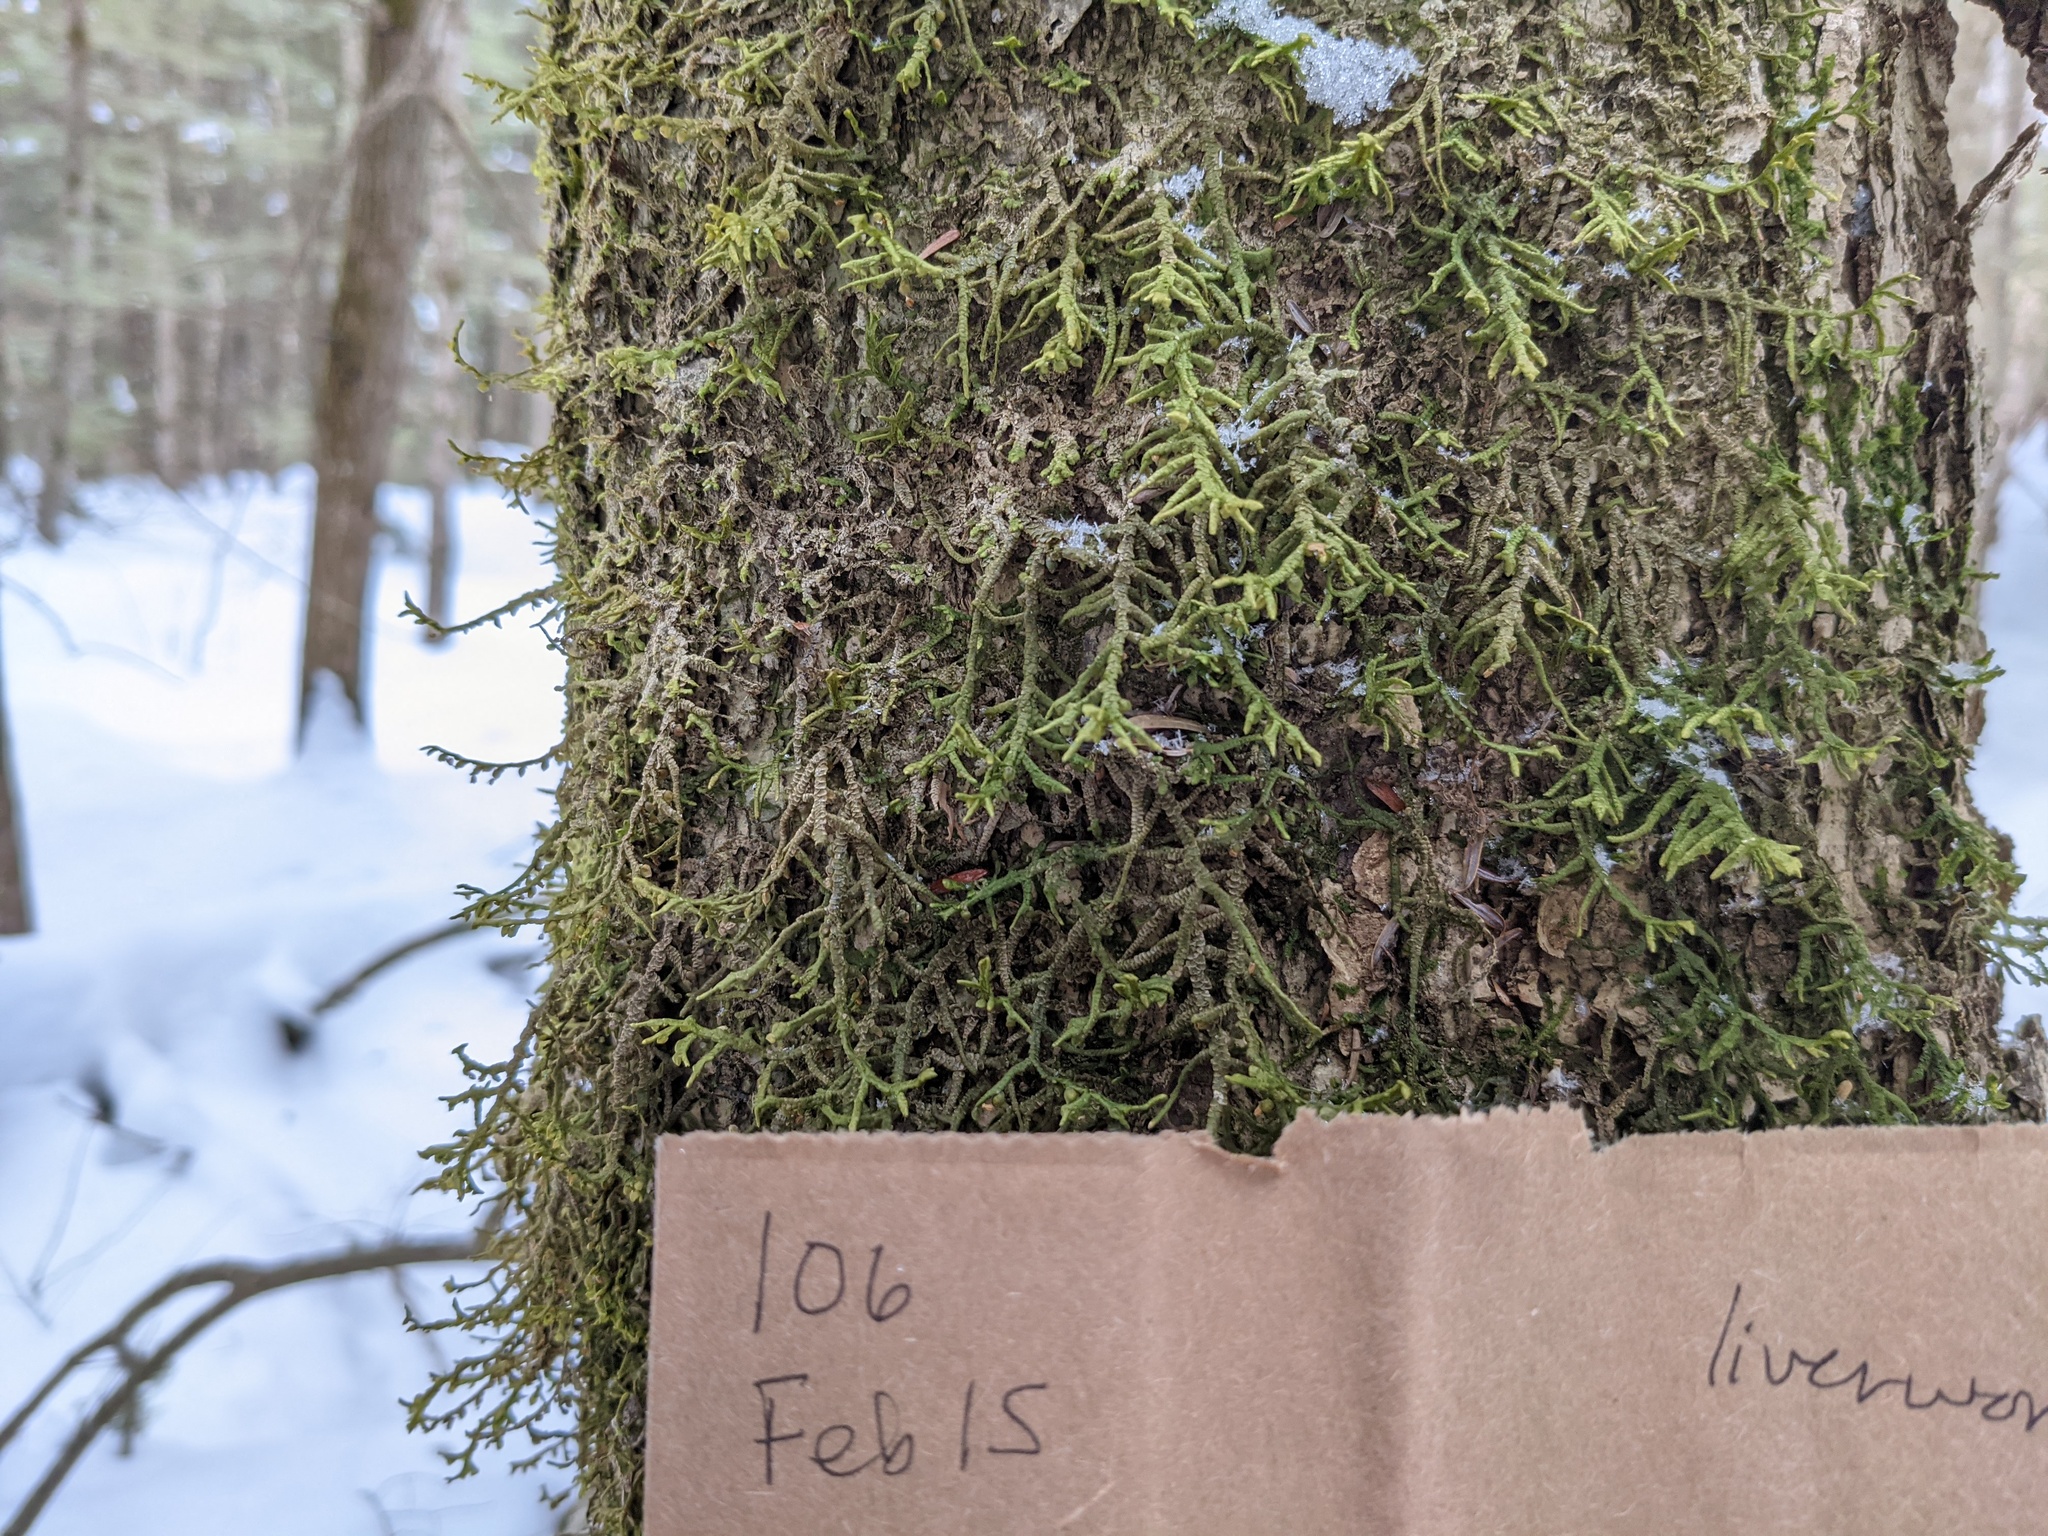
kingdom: Plantae
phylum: Marchantiophyta
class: Jungermanniopsida
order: Porellales
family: Porellaceae
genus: Porella
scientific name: Porella platyphylla
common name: Wall scalewort
